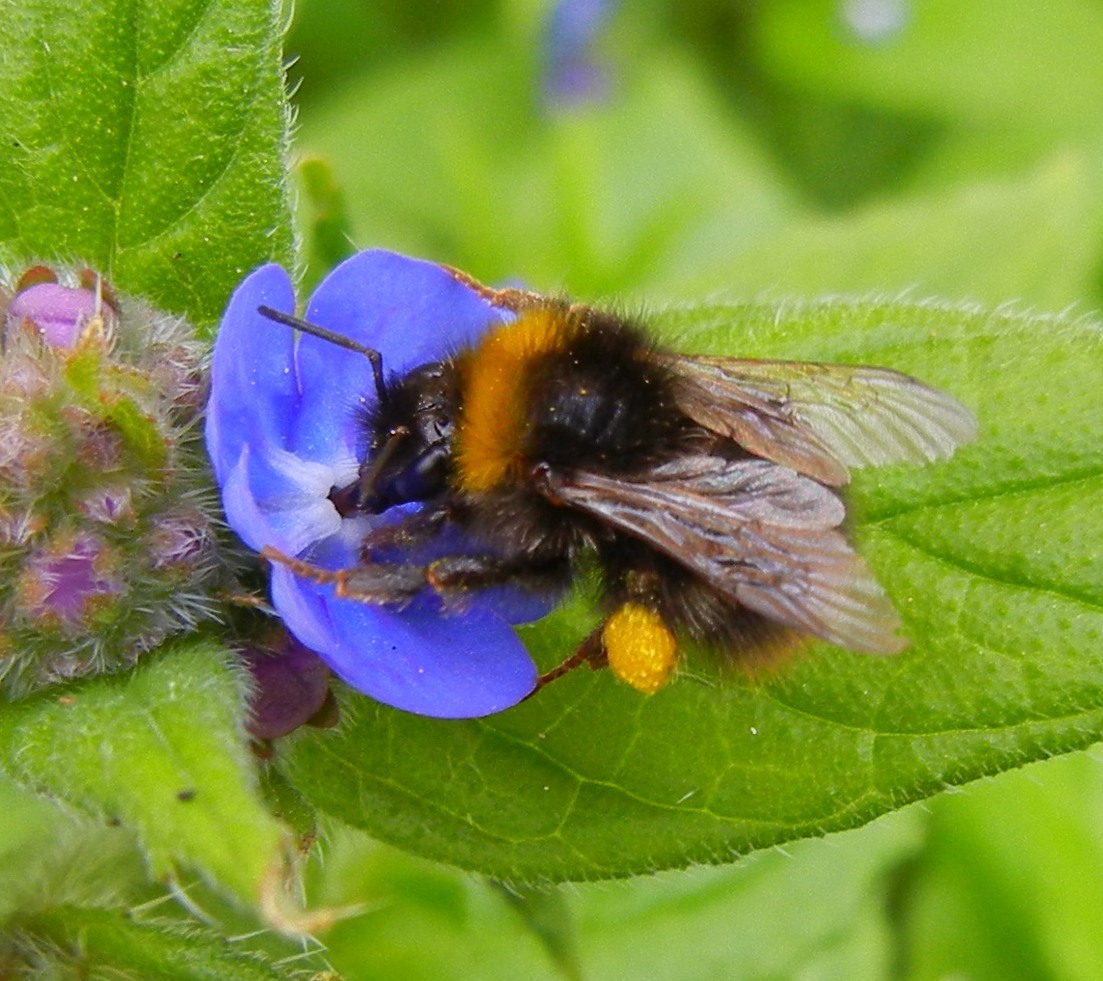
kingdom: Animalia
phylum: Arthropoda
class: Insecta
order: Hymenoptera
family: Apidae
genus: Bombus
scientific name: Bombus pratorum
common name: Early humble-bee
